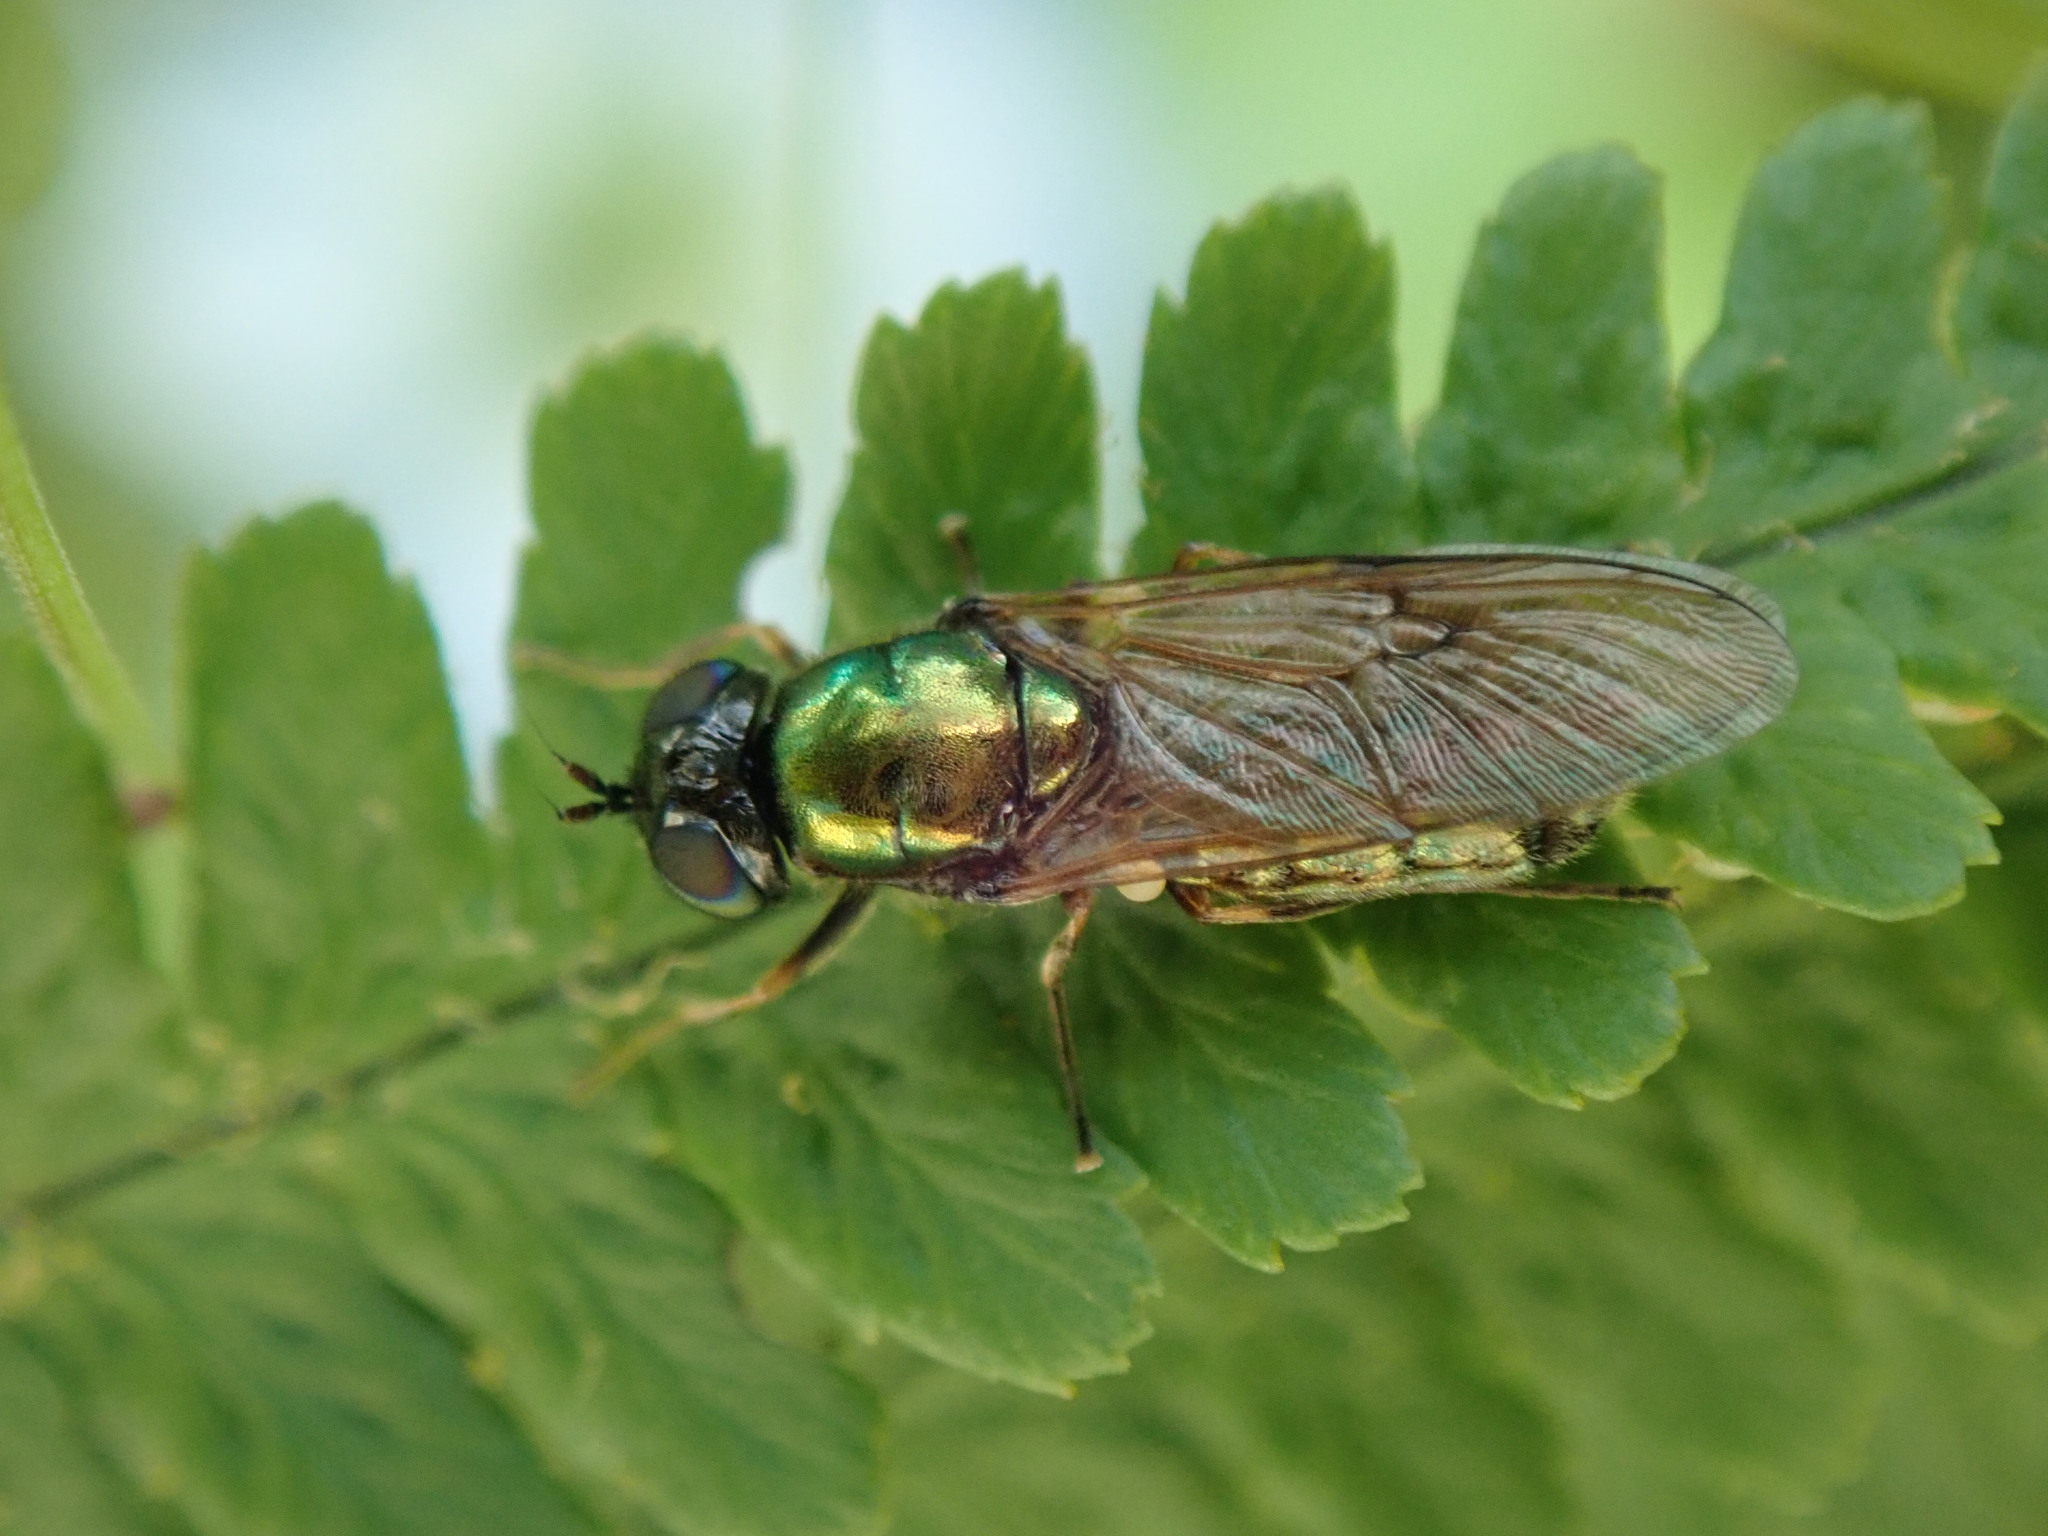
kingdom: Animalia
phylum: Arthropoda
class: Insecta
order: Diptera
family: Stratiomyidae
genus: Chloromyia
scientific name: Chloromyia formosa
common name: Soldier fly
